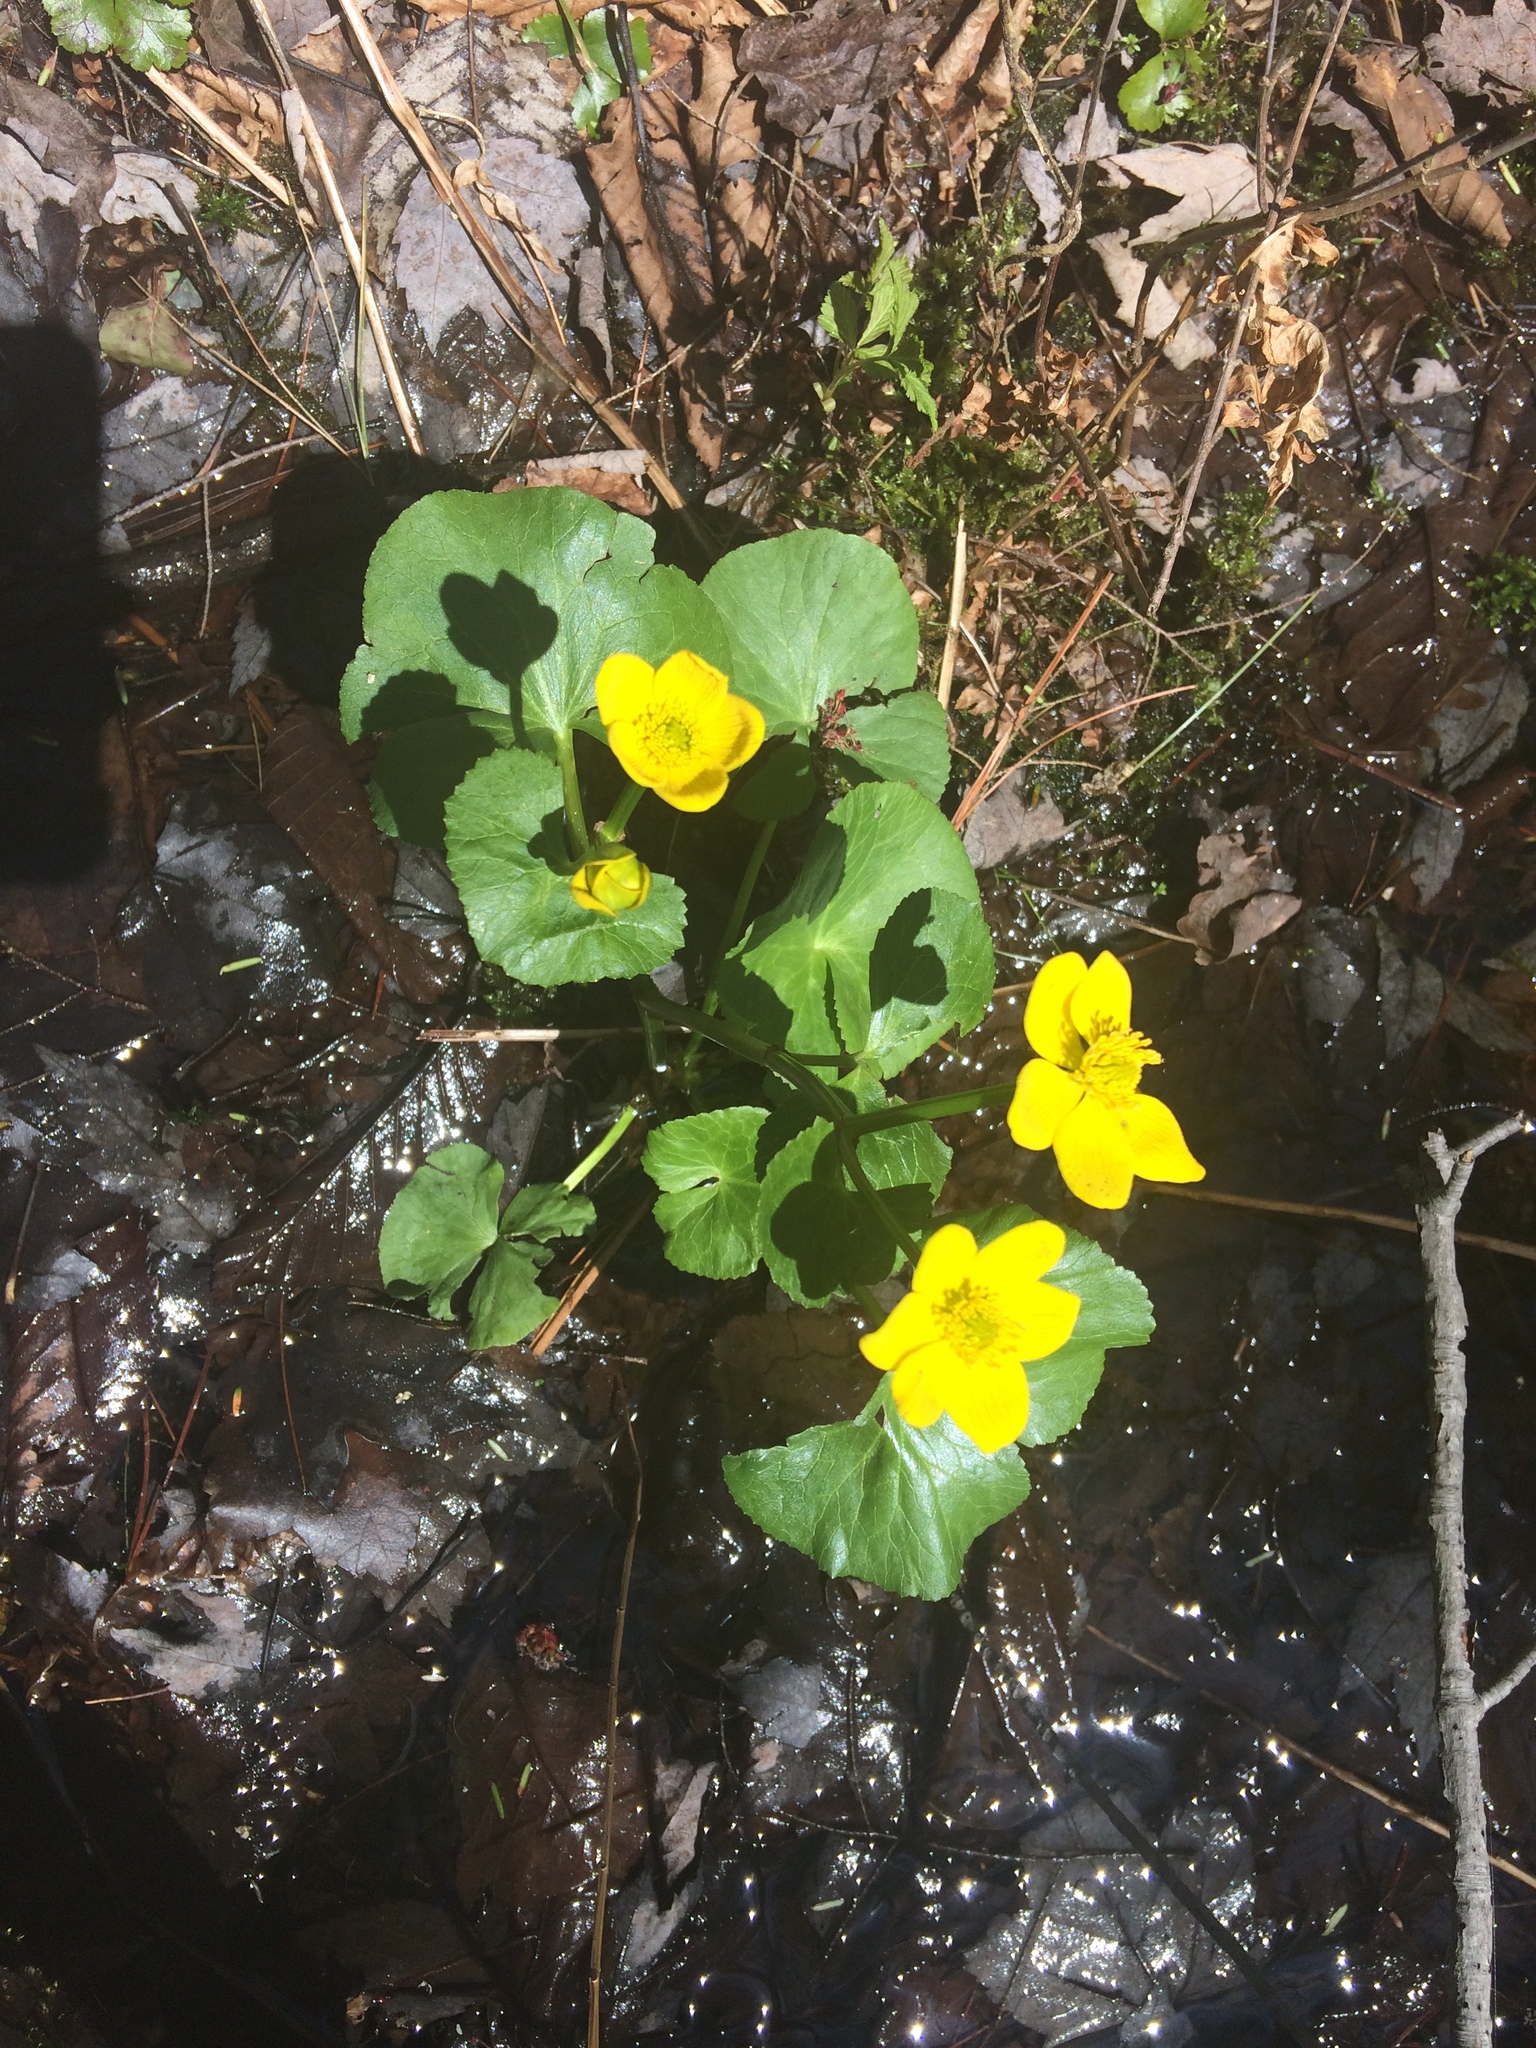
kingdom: Plantae
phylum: Tracheophyta
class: Magnoliopsida
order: Ranunculales
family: Ranunculaceae
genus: Caltha
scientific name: Caltha palustris
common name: Marsh marigold
